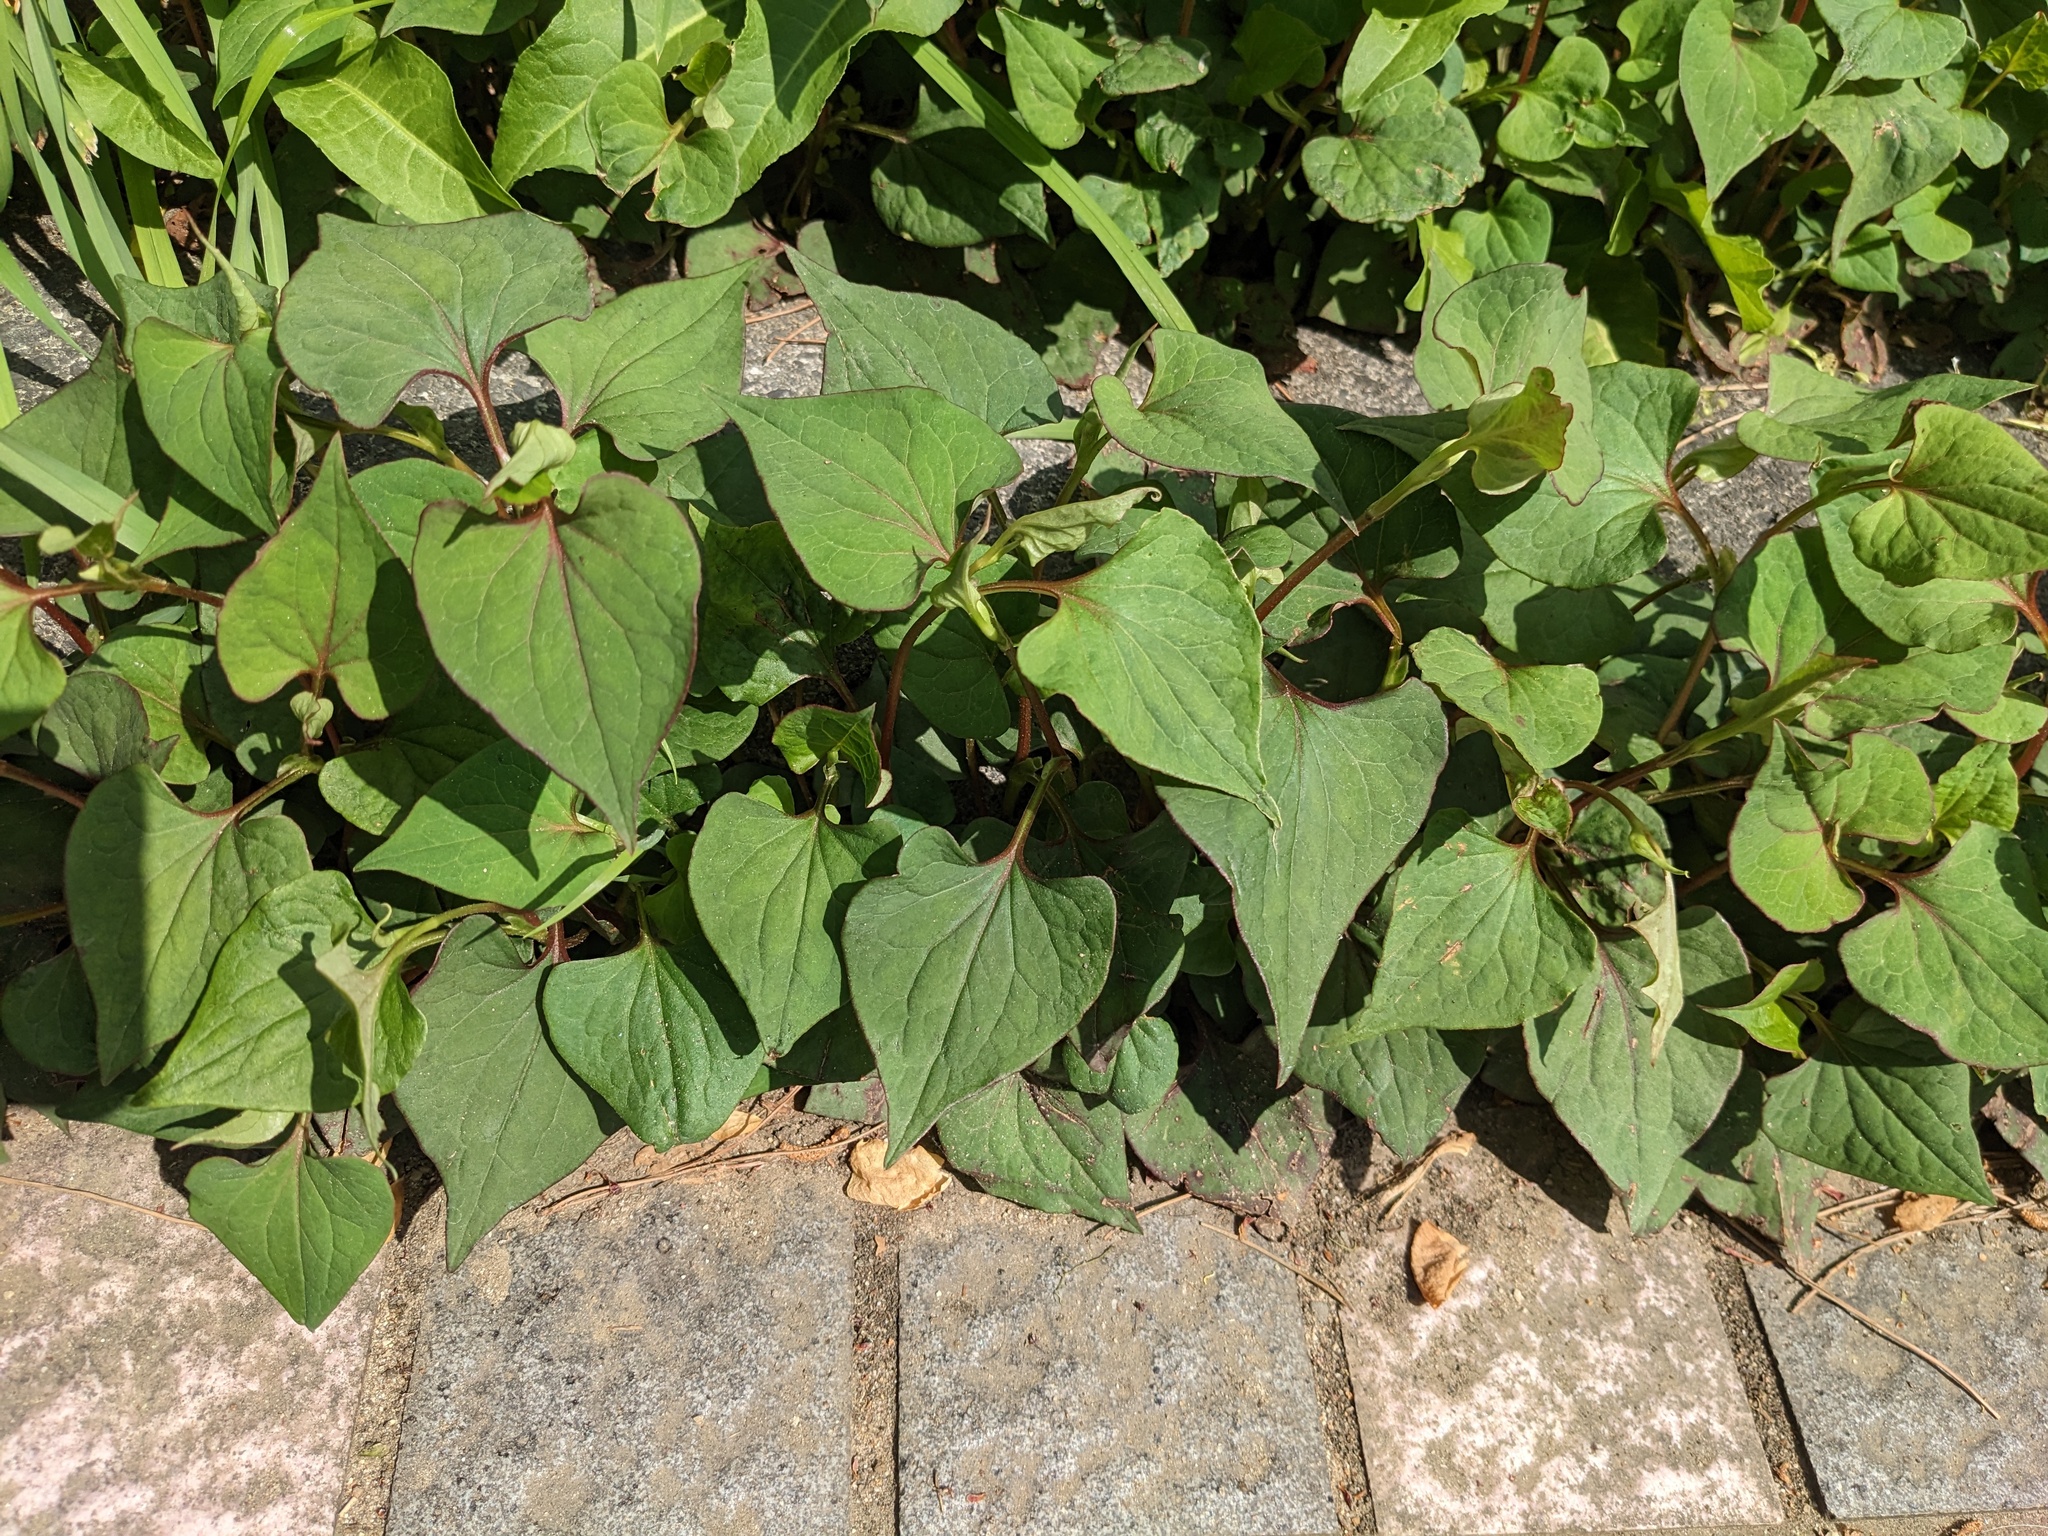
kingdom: Plantae
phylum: Tracheophyta
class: Magnoliopsida
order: Piperales
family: Saururaceae
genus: Houttuynia
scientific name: Houttuynia cordata
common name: Chameleon
